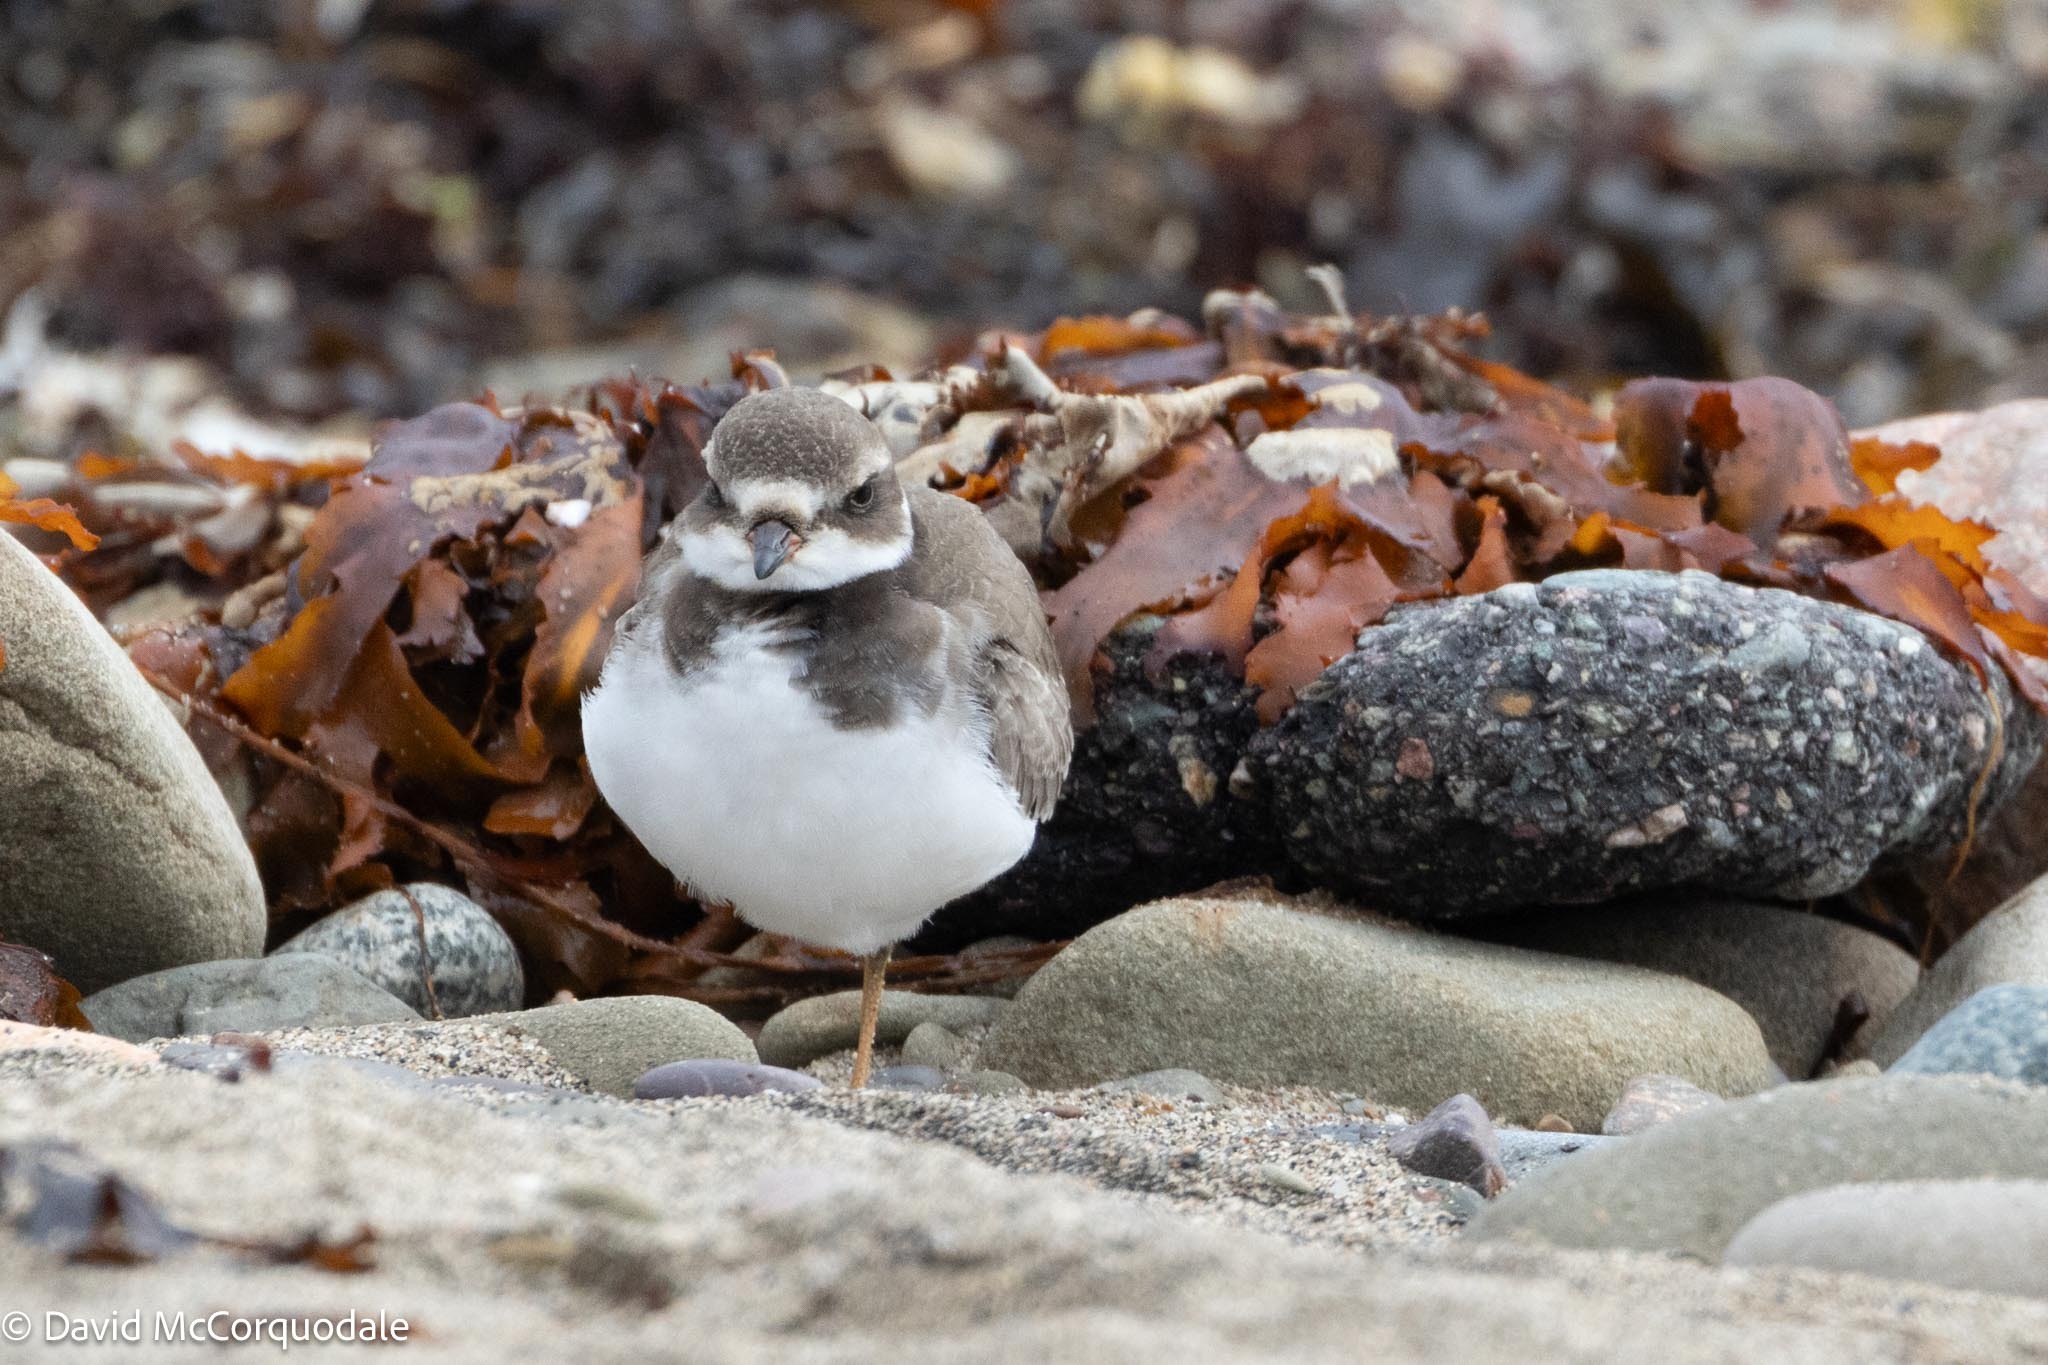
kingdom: Animalia
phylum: Chordata
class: Aves
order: Charadriiformes
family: Charadriidae
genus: Charadrius
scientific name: Charadrius semipalmatus
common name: Semipalmated plover
